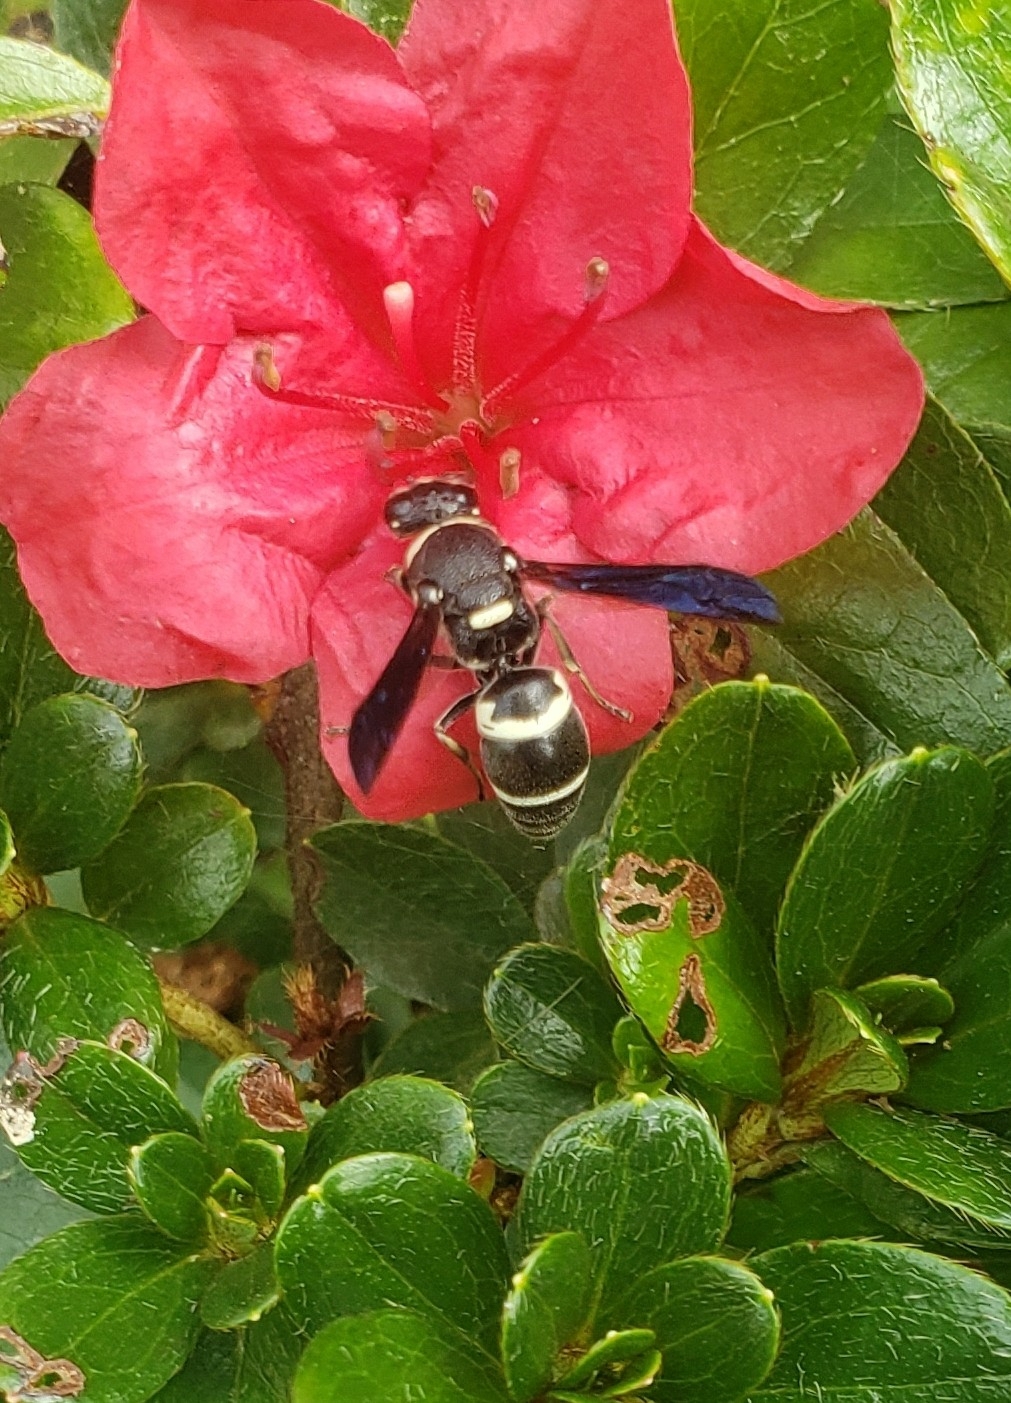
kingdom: Animalia
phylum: Arthropoda
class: Insecta
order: Hymenoptera
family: Eumenidae
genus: Euodynerus
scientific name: Euodynerus
